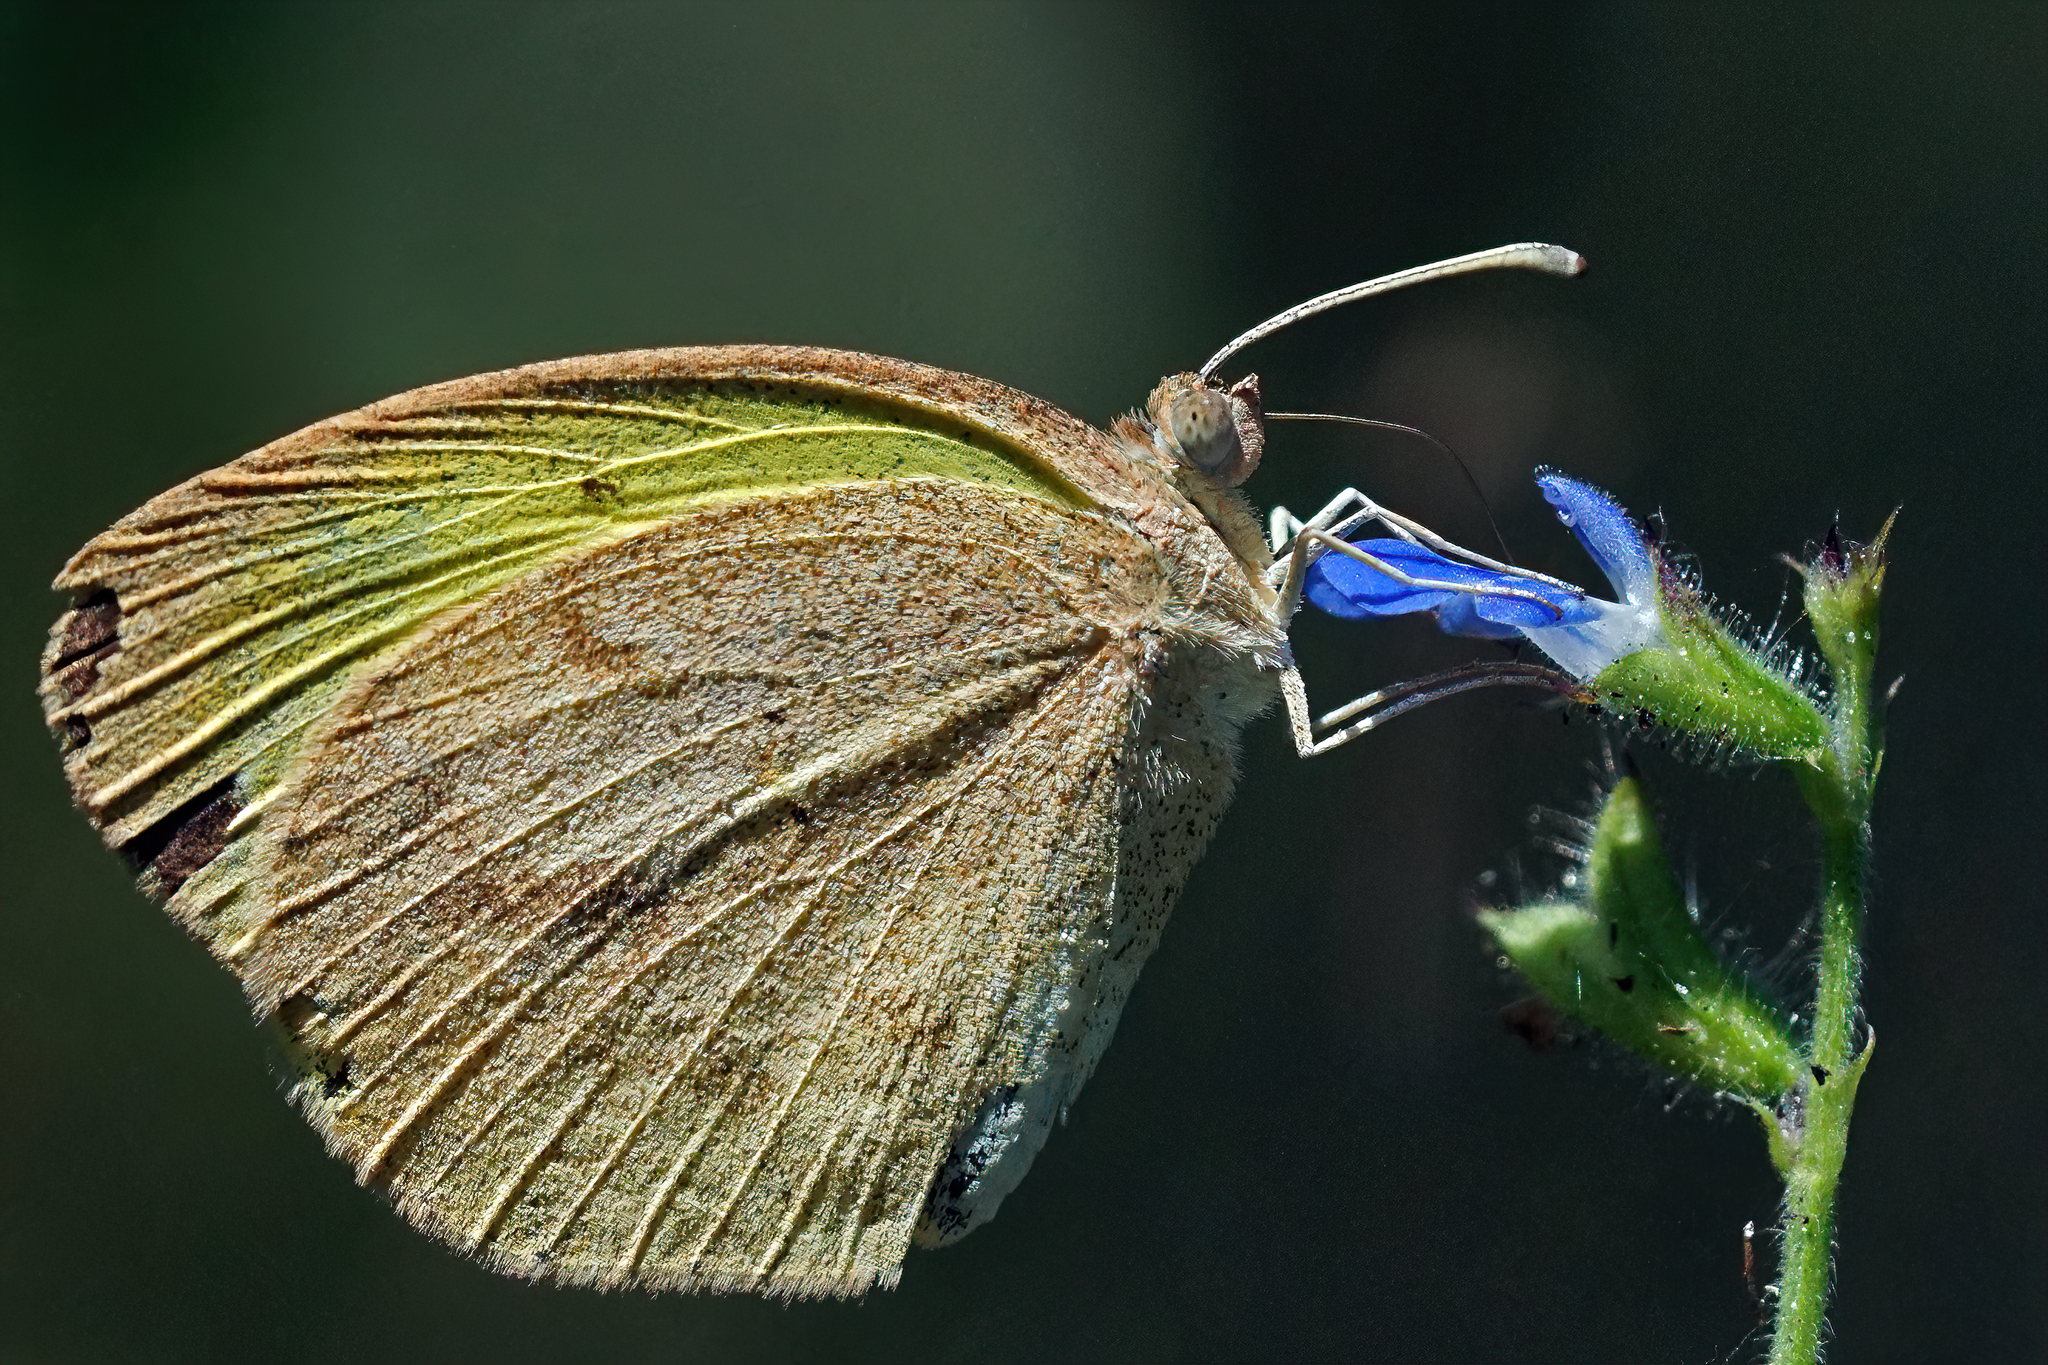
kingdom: Animalia
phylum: Arthropoda
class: Insecta
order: Lepidoptera
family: Pieridae
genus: Eurema
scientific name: Eurema daira
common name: Barred sulphur
